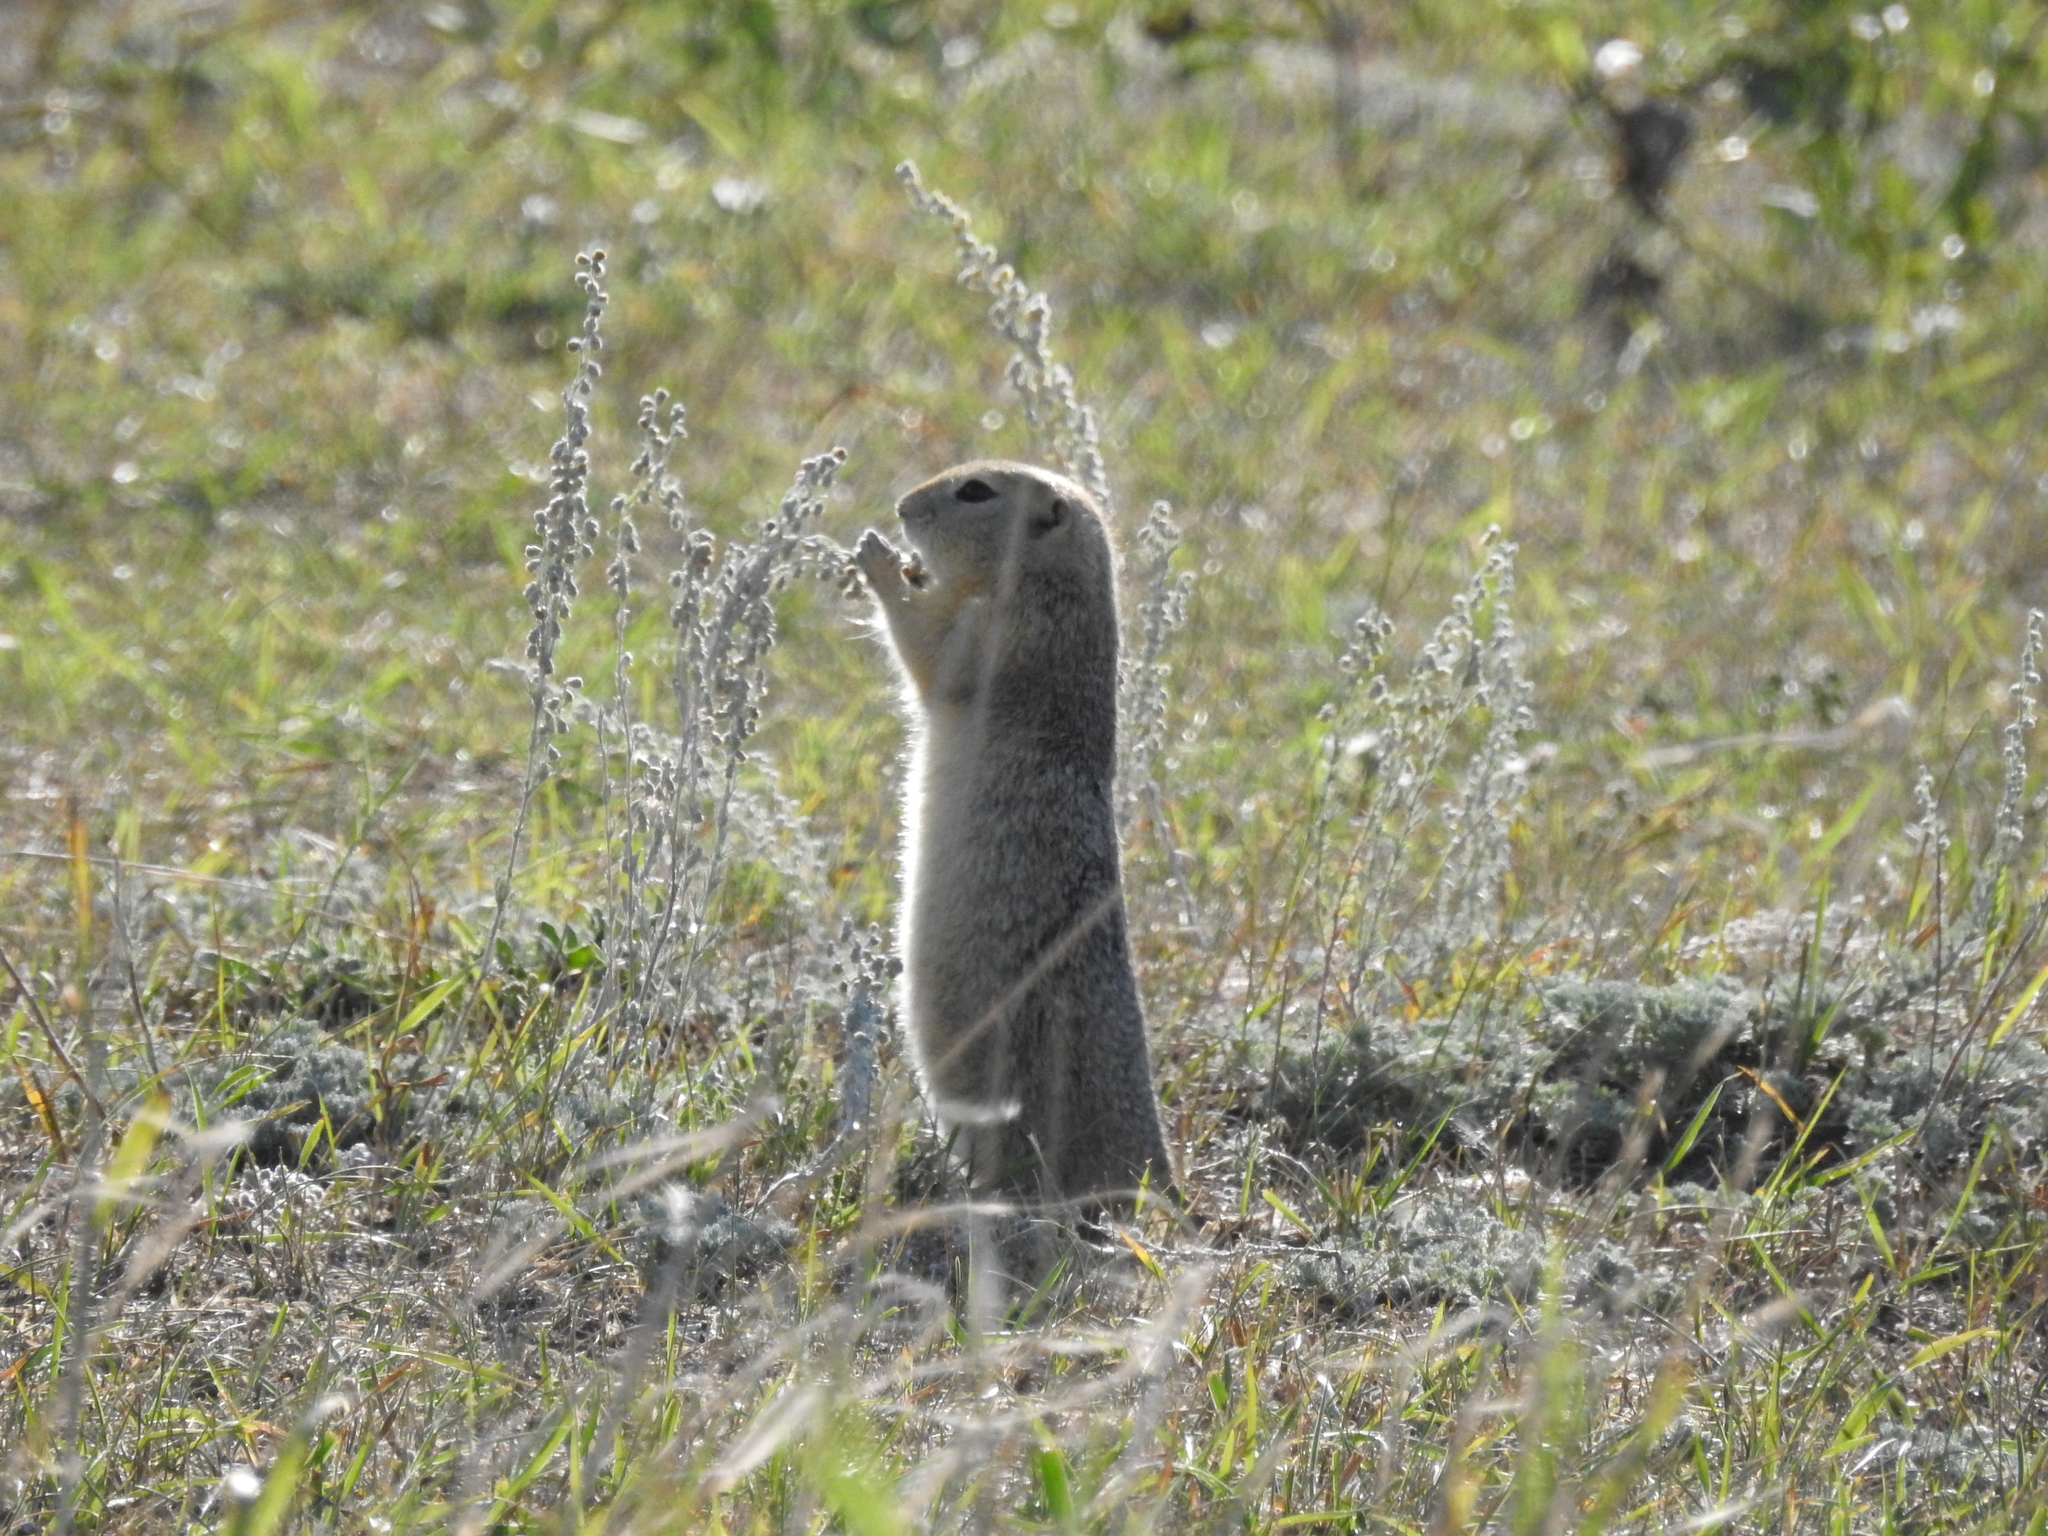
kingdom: Animalia
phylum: Chordata
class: Mammalia
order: Rodentia
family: Sciuridae
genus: Urocitellus
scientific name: Urocitellus richardsonii
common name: Richardson's ground squirrel
